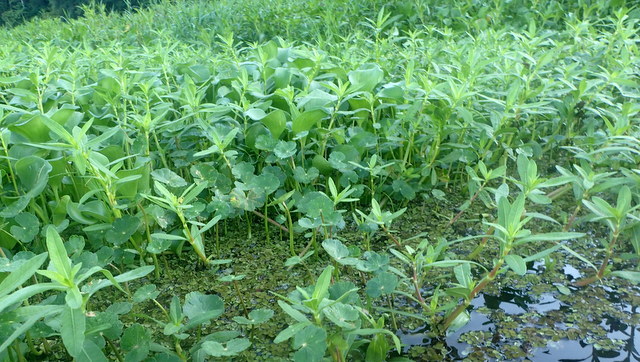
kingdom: Plantae
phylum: Tracheophyta
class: Magnoliopsida
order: Caryophyllales
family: Amaranthaceae
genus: Alternanthera
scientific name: Alternanthera philoxeroides
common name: Alligatorweed
